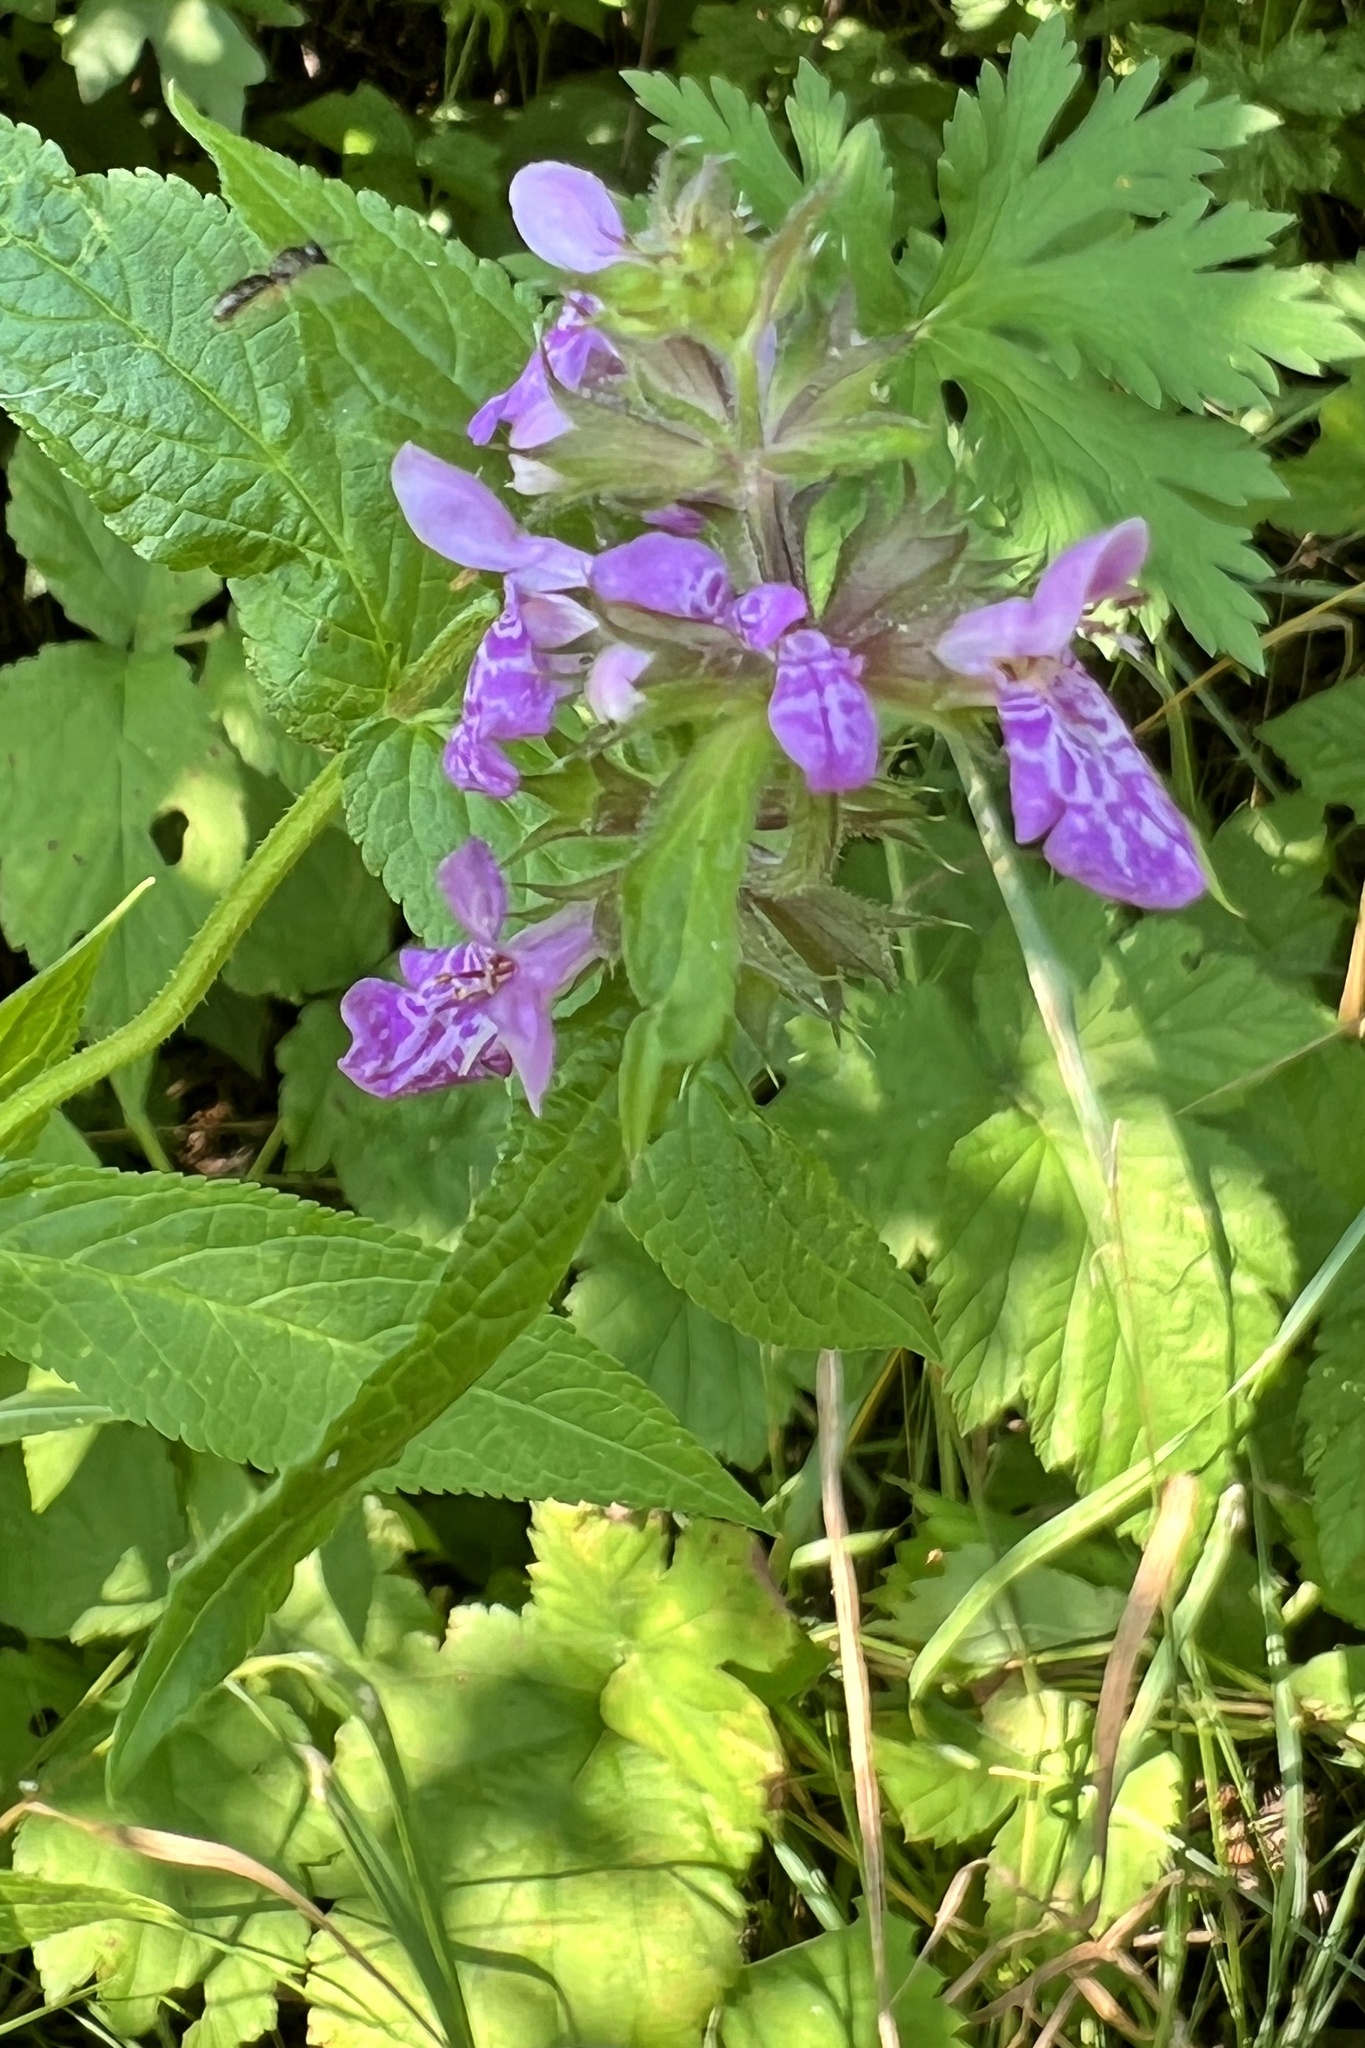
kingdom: Plantae
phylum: Tracheophyta
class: Magnoliopsida
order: Lamiales
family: Lamiaceae
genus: Stachys
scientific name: Stachys palustris
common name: Marsh woundwort
